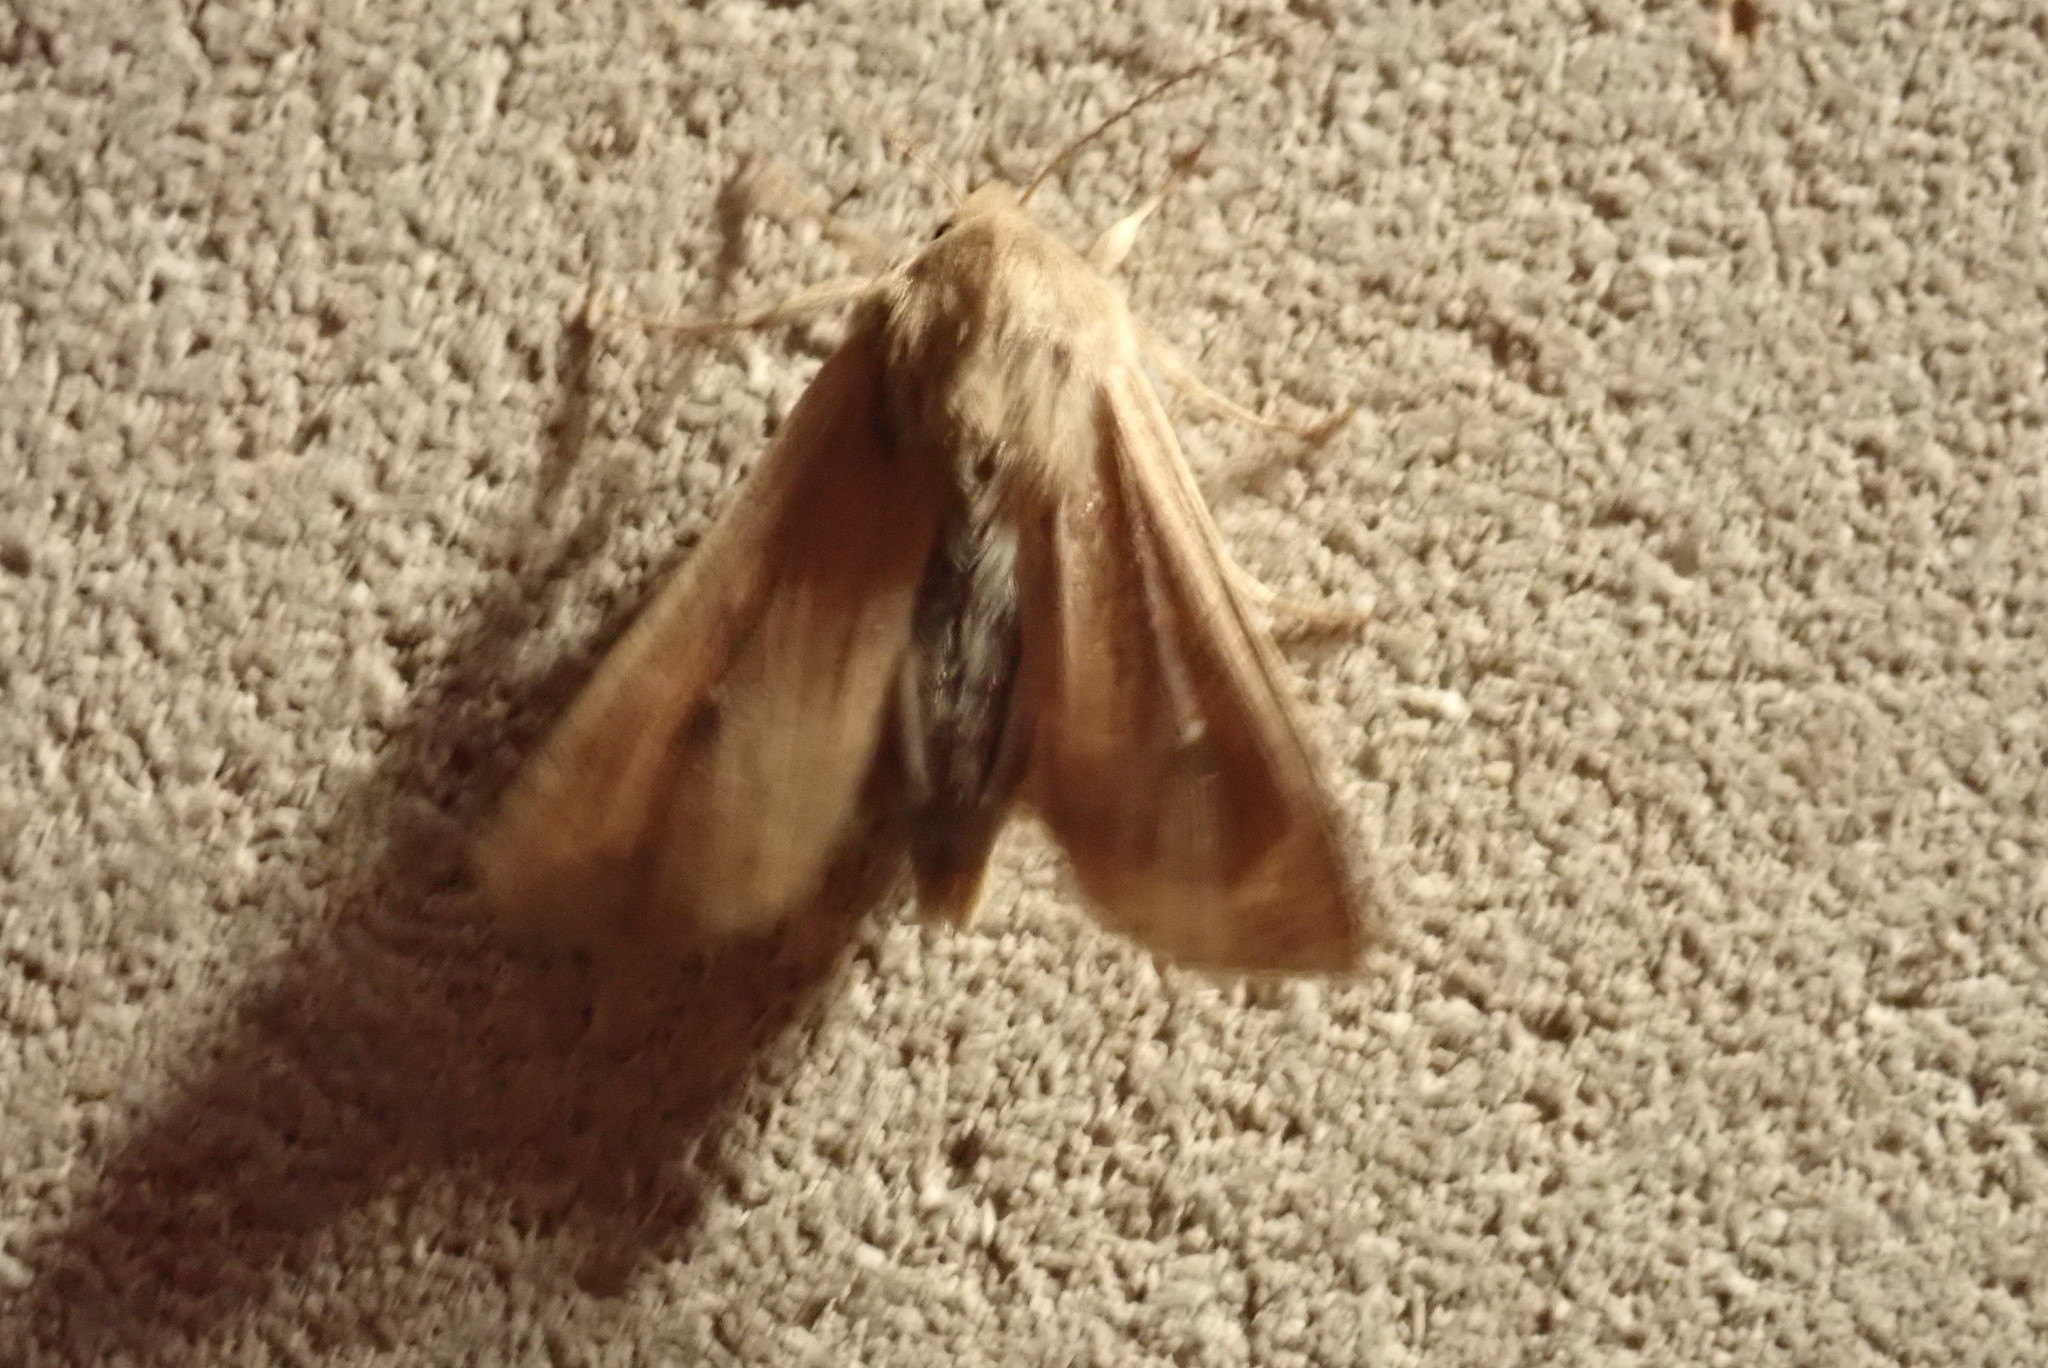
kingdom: Animalia
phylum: Arthropoda
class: Insecta
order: Lepidoptera
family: Noctuidae
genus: Mythimna
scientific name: Mythimna unipuncta
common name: White-speck
